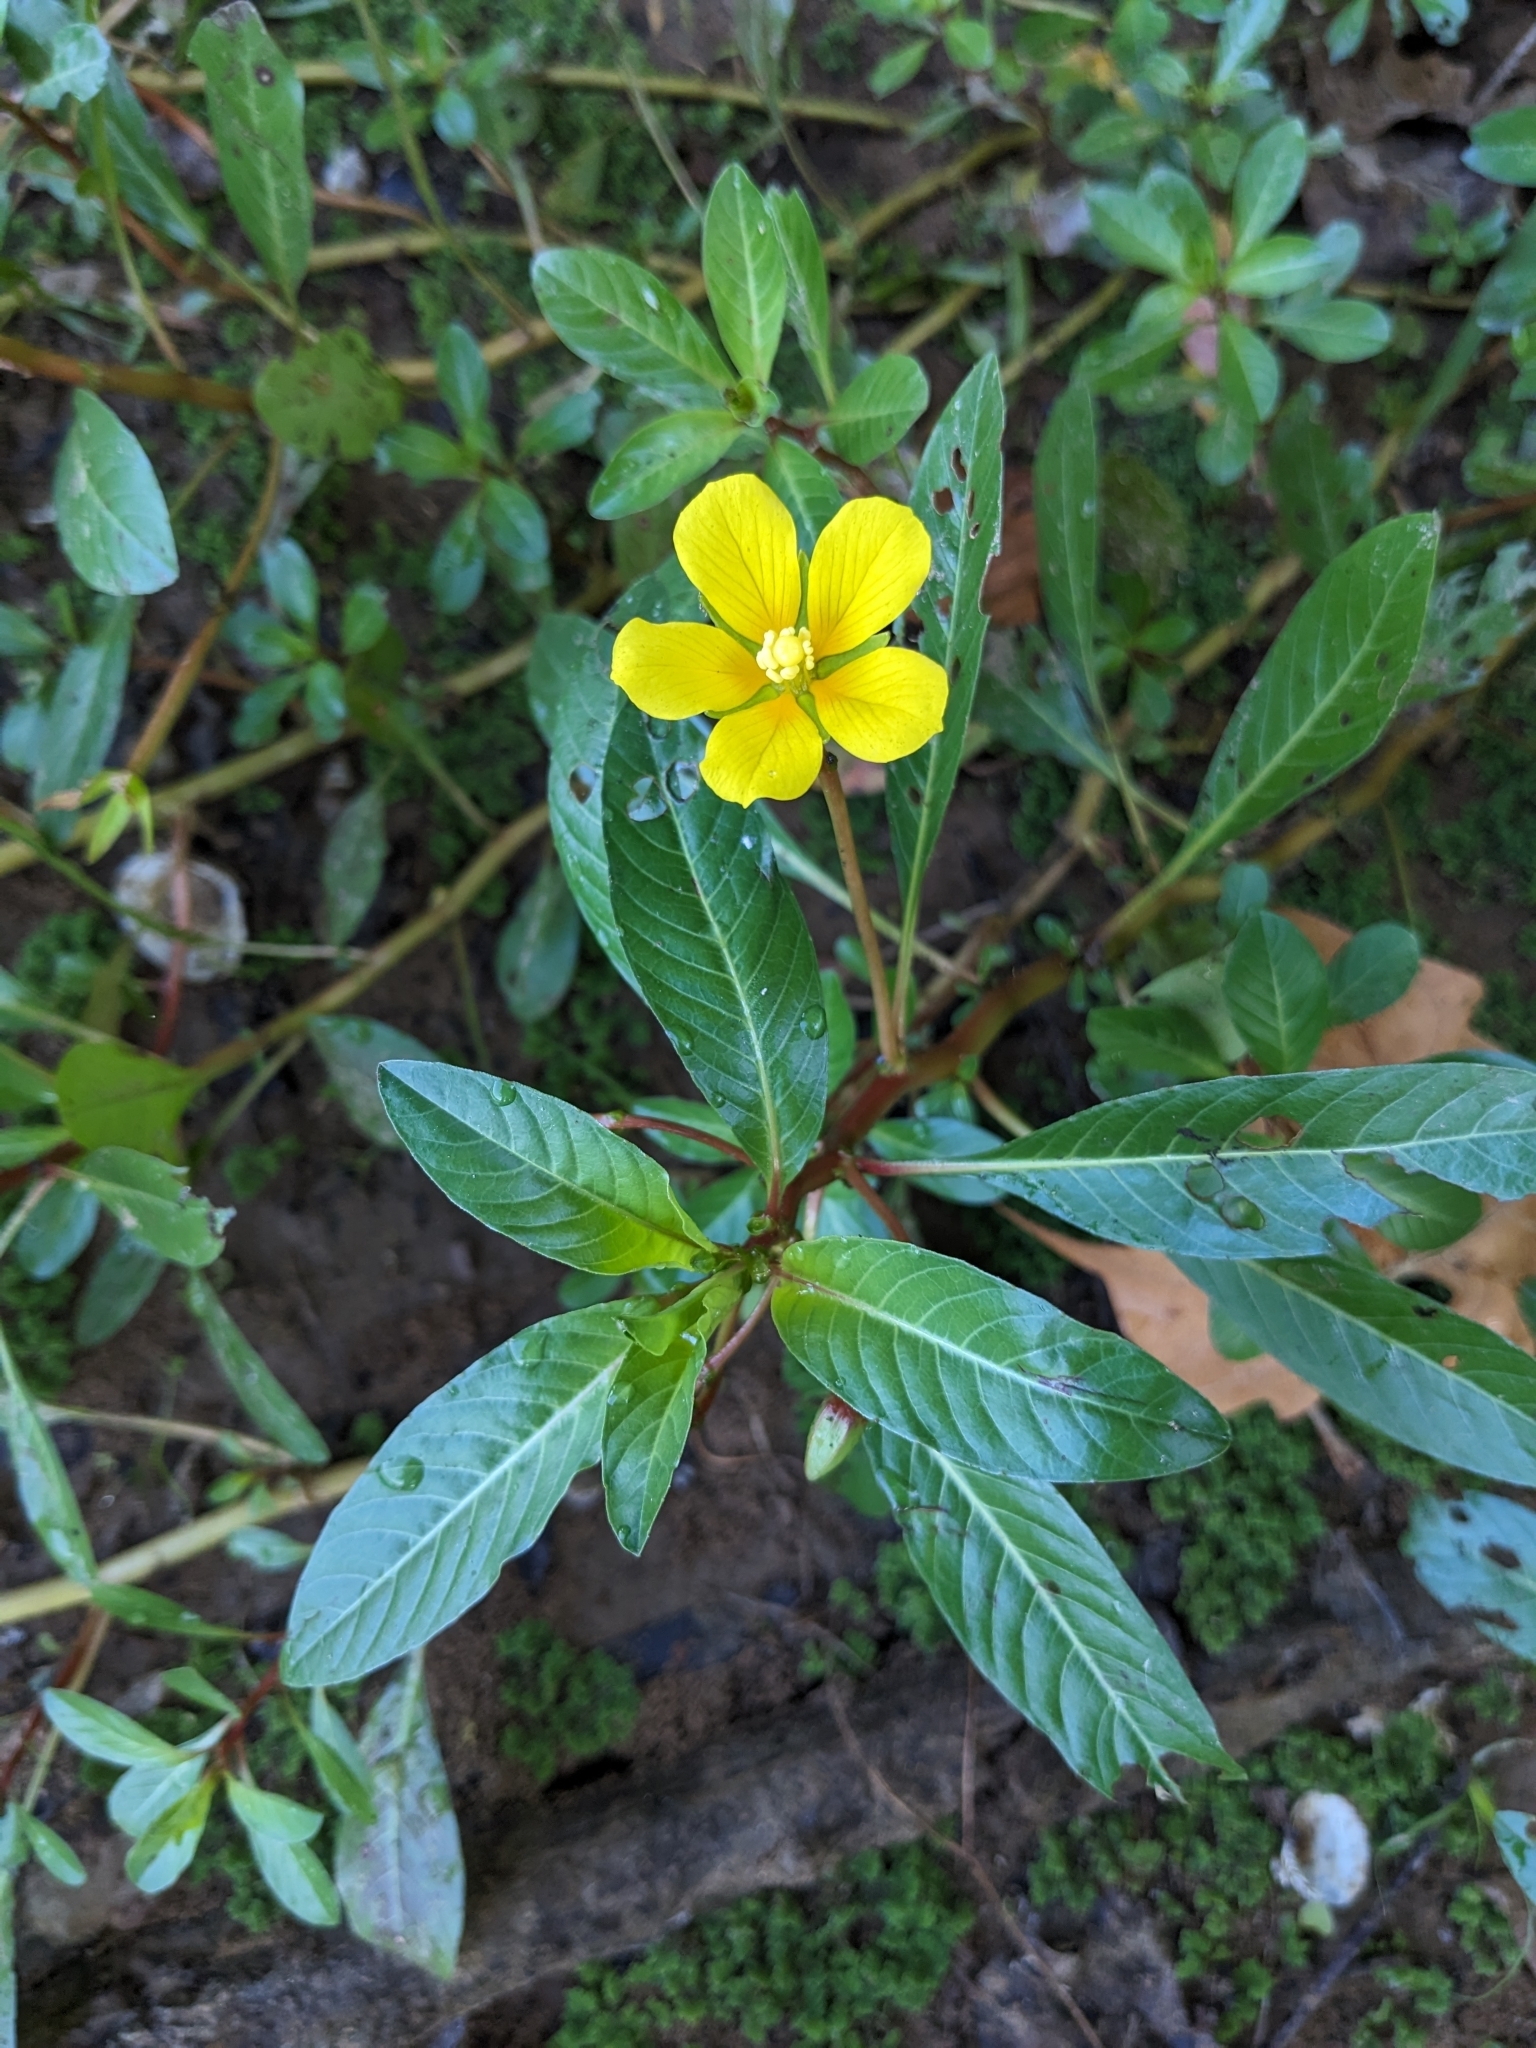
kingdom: Plantae
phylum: Tracheophyta
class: Magnoliopsida
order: Myrtales
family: Onagraceae
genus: Ludwigia
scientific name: Ludwigia peploides
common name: Floating primrose-willow
